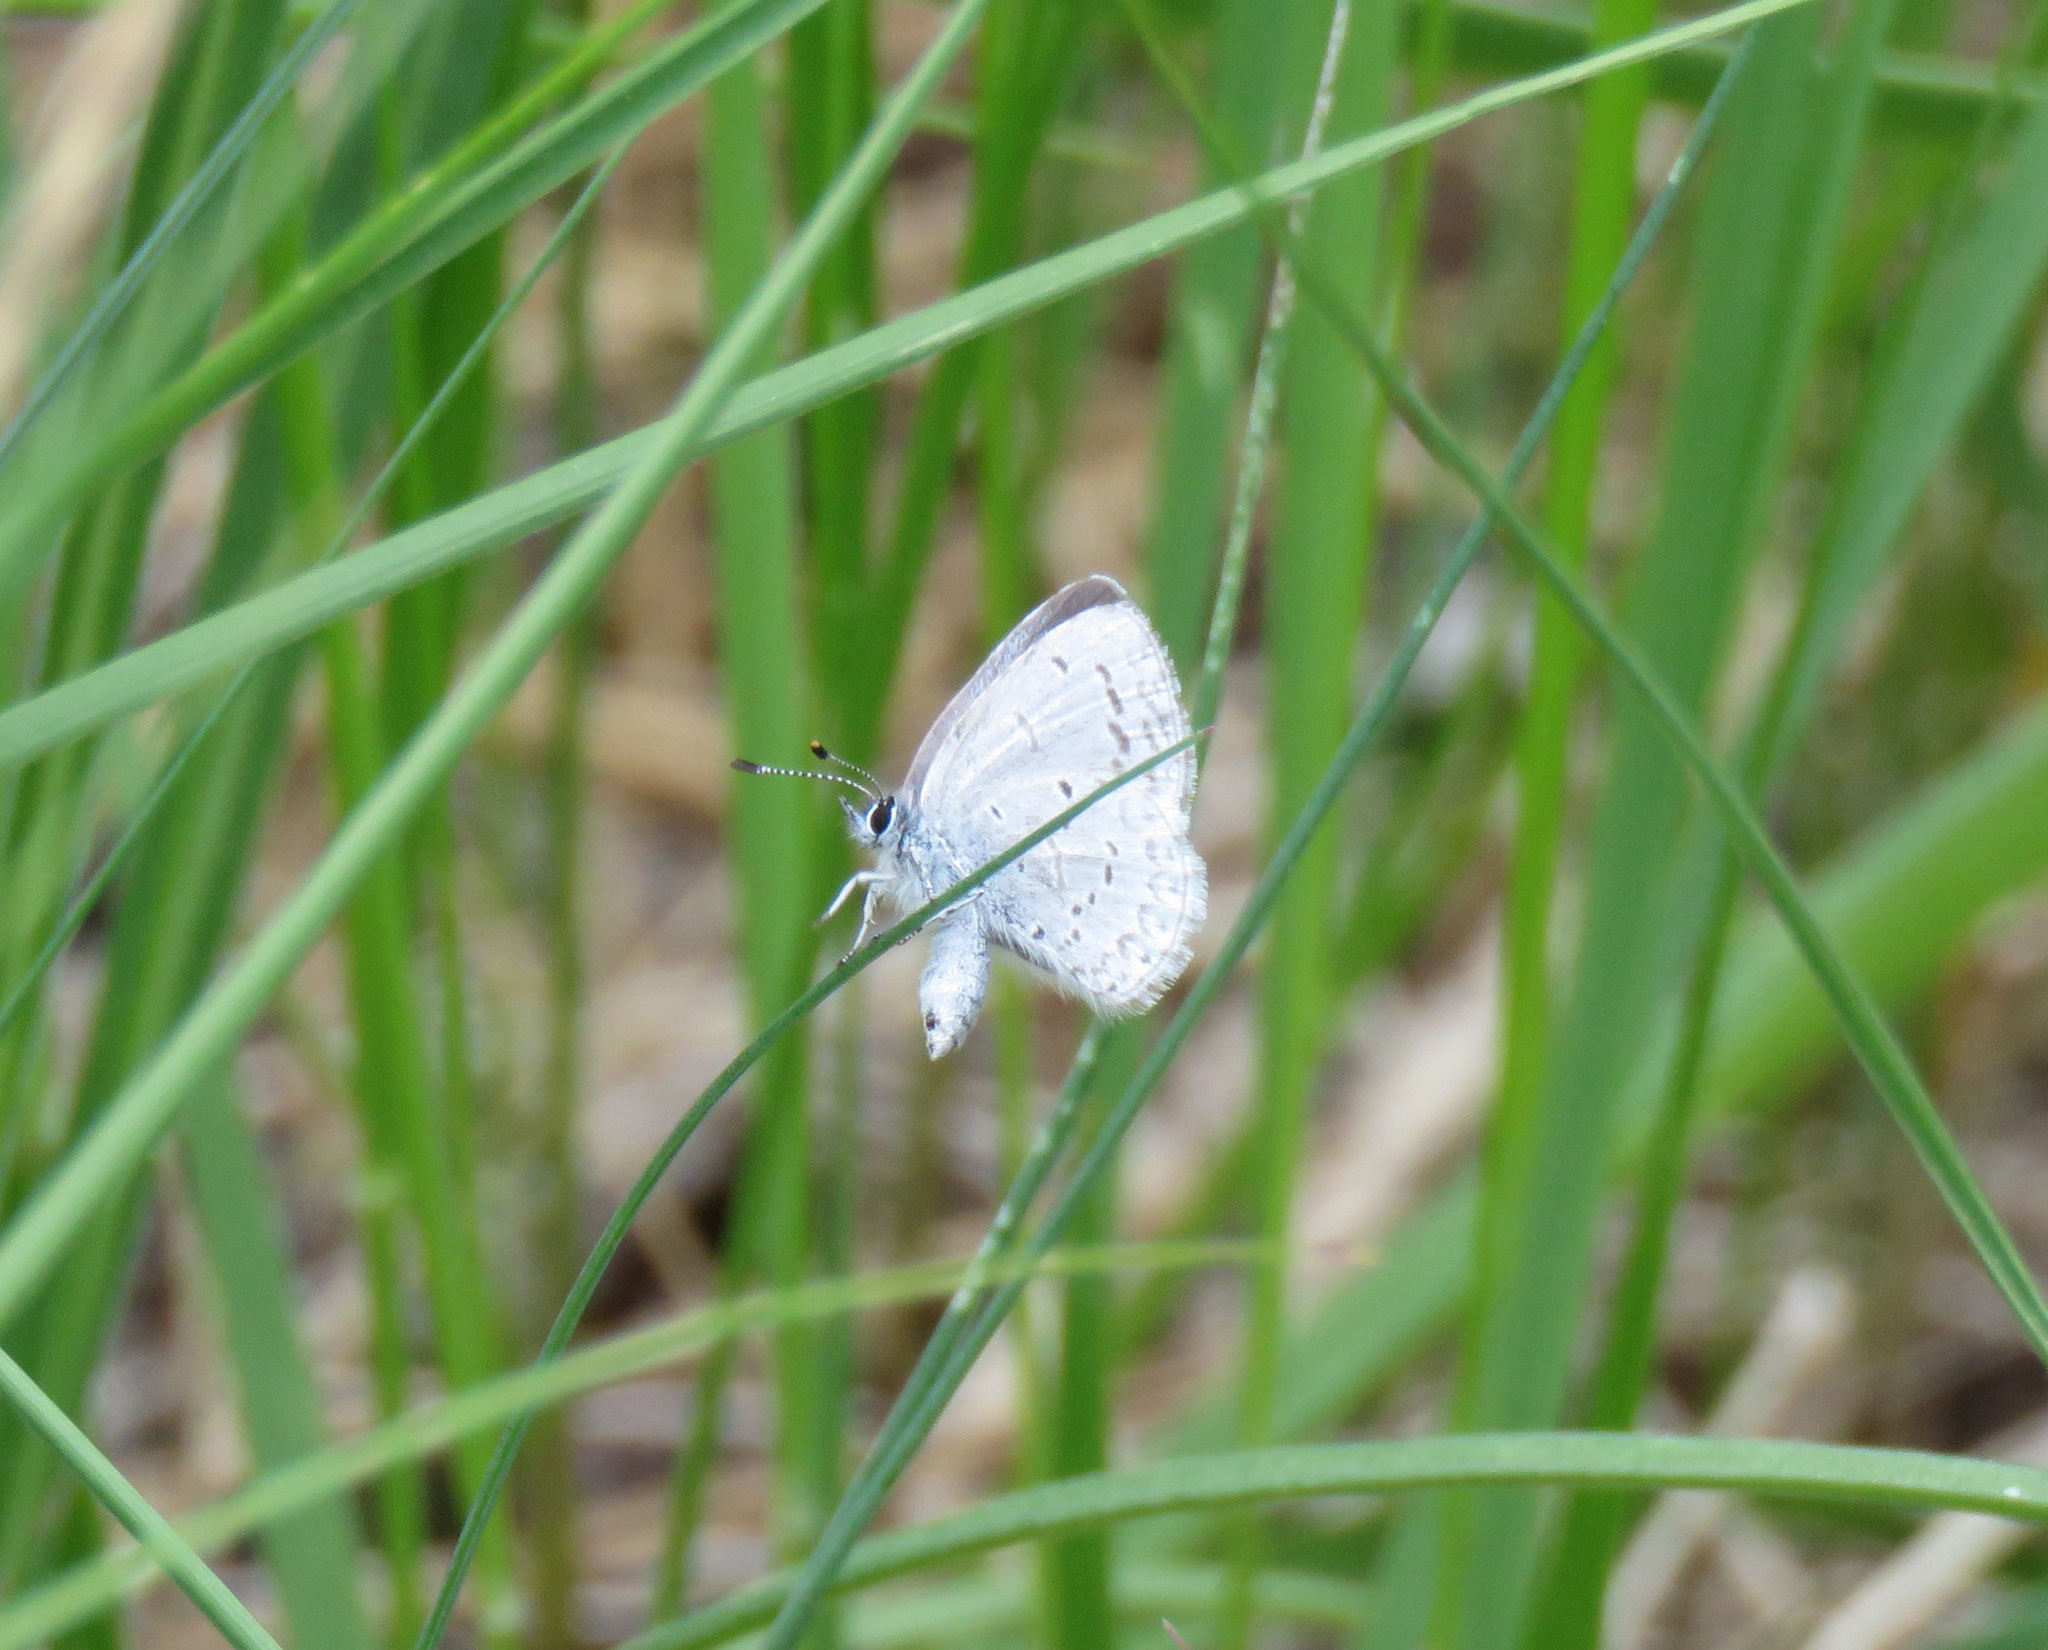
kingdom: Animalia
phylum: Arthropoda
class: Insecta
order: Lepidoptera
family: Lycaenidae
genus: Celastrina
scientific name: Celastrina ladon
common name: Spring azure
